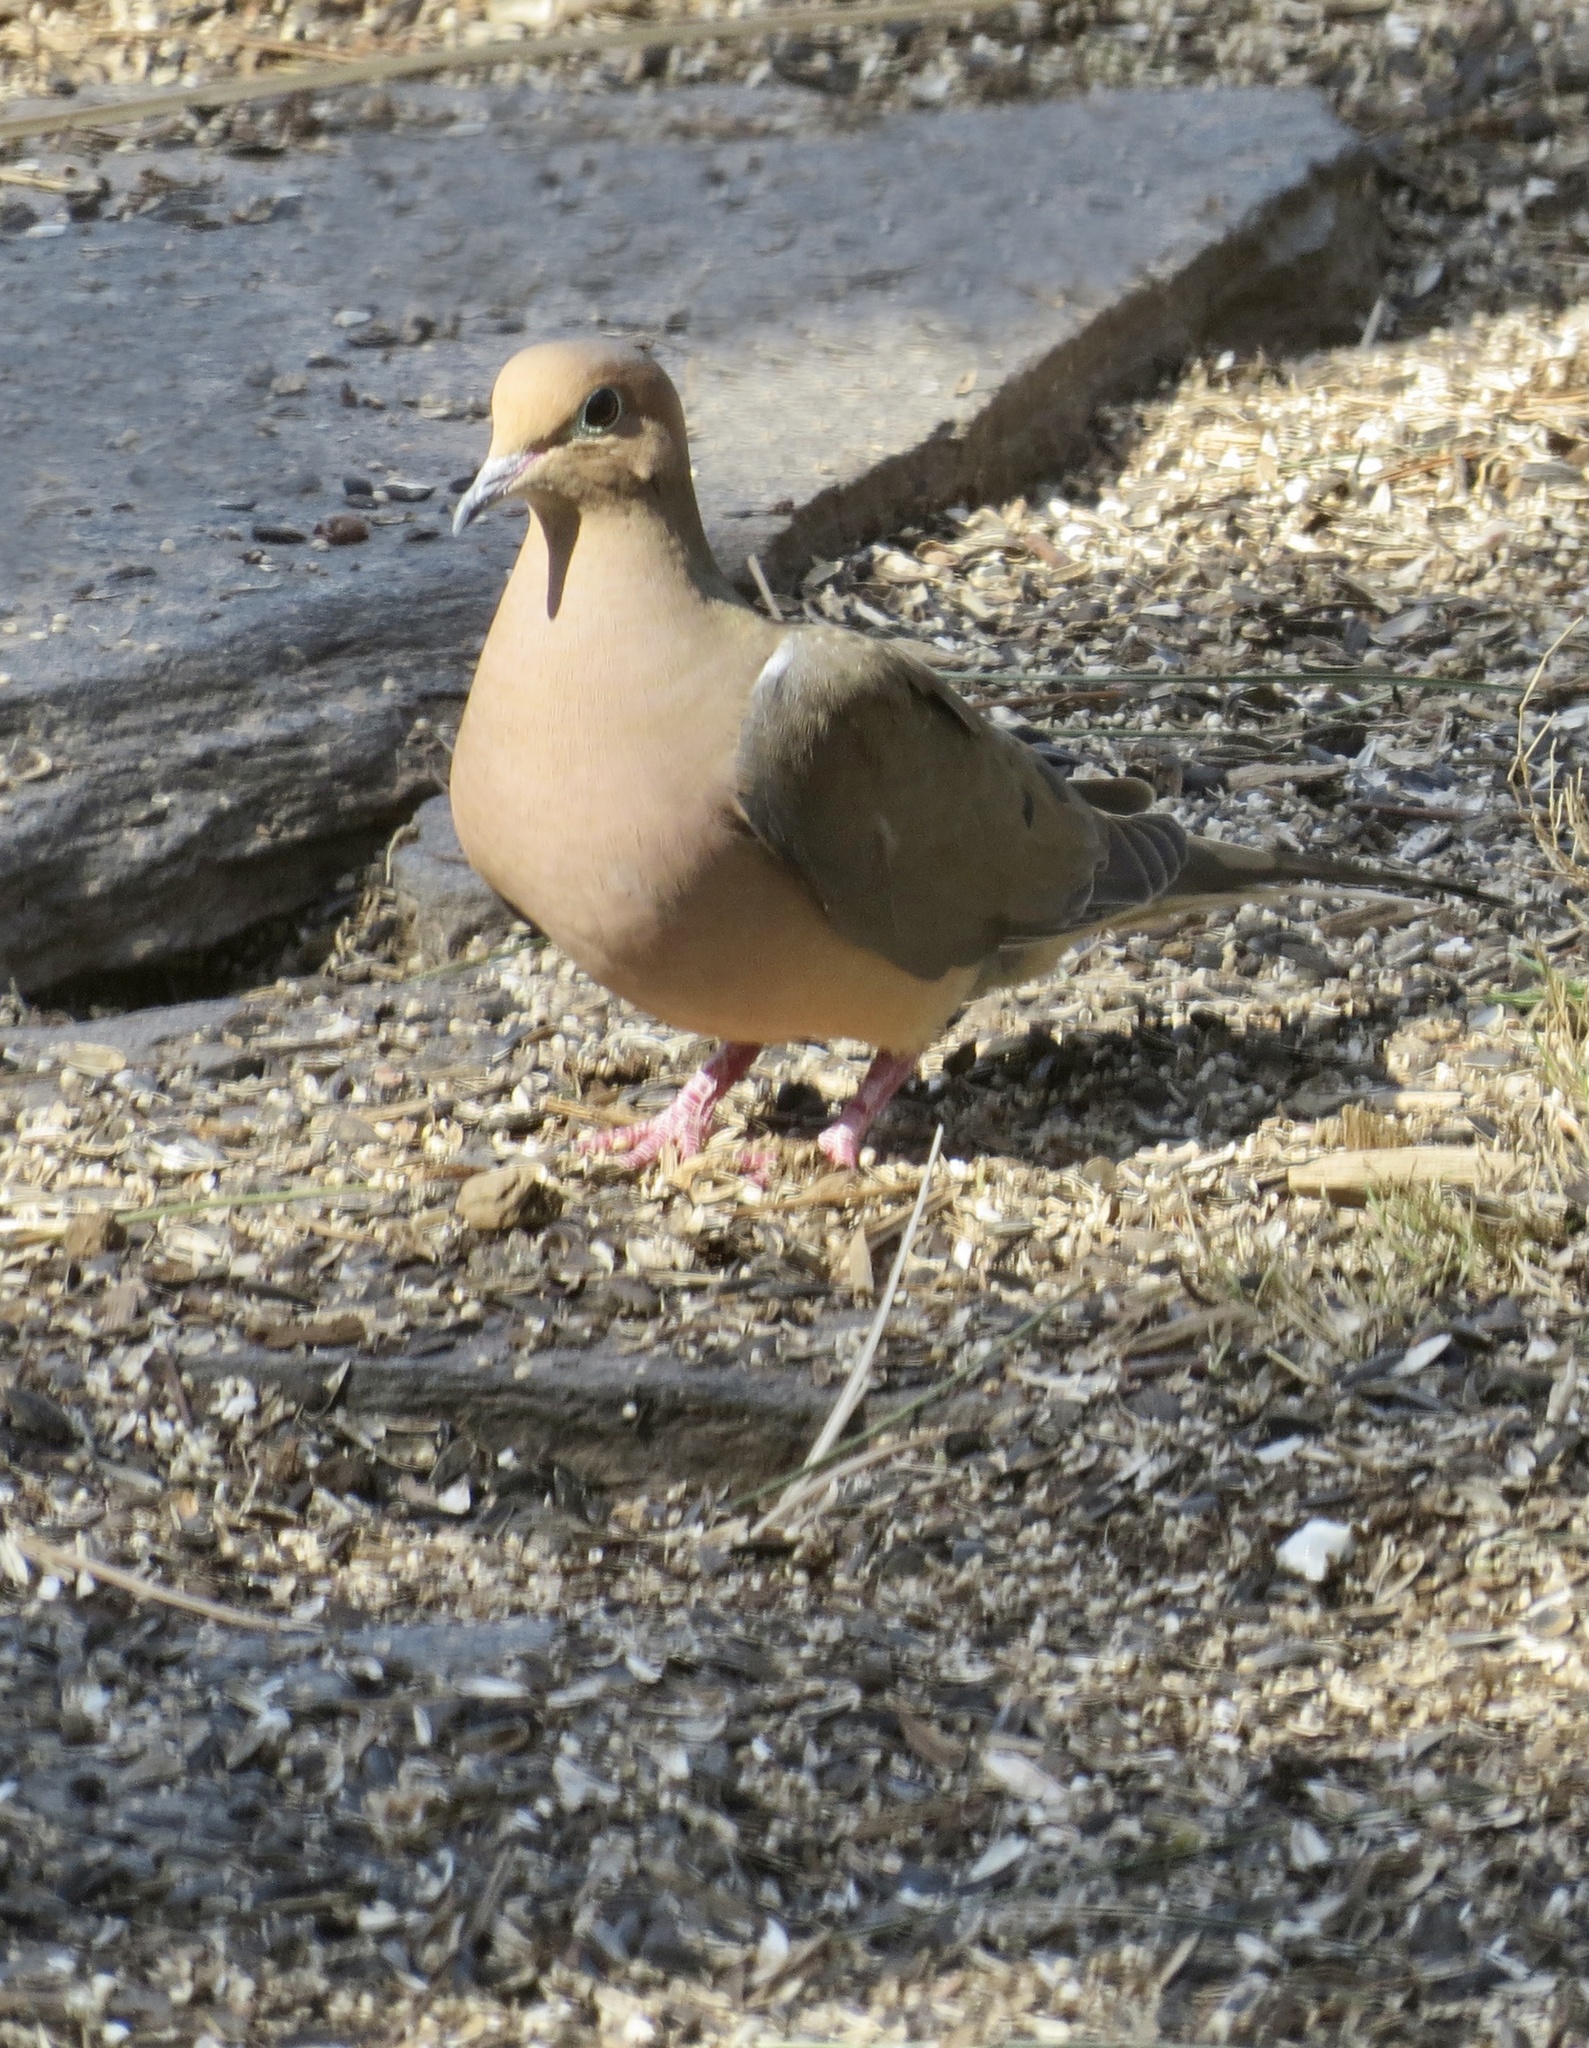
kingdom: Animalia
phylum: Chordata
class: Aves
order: Columbiformes
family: Columbidae
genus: Zenaida
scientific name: Zenaida macroura
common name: Mourning dove
